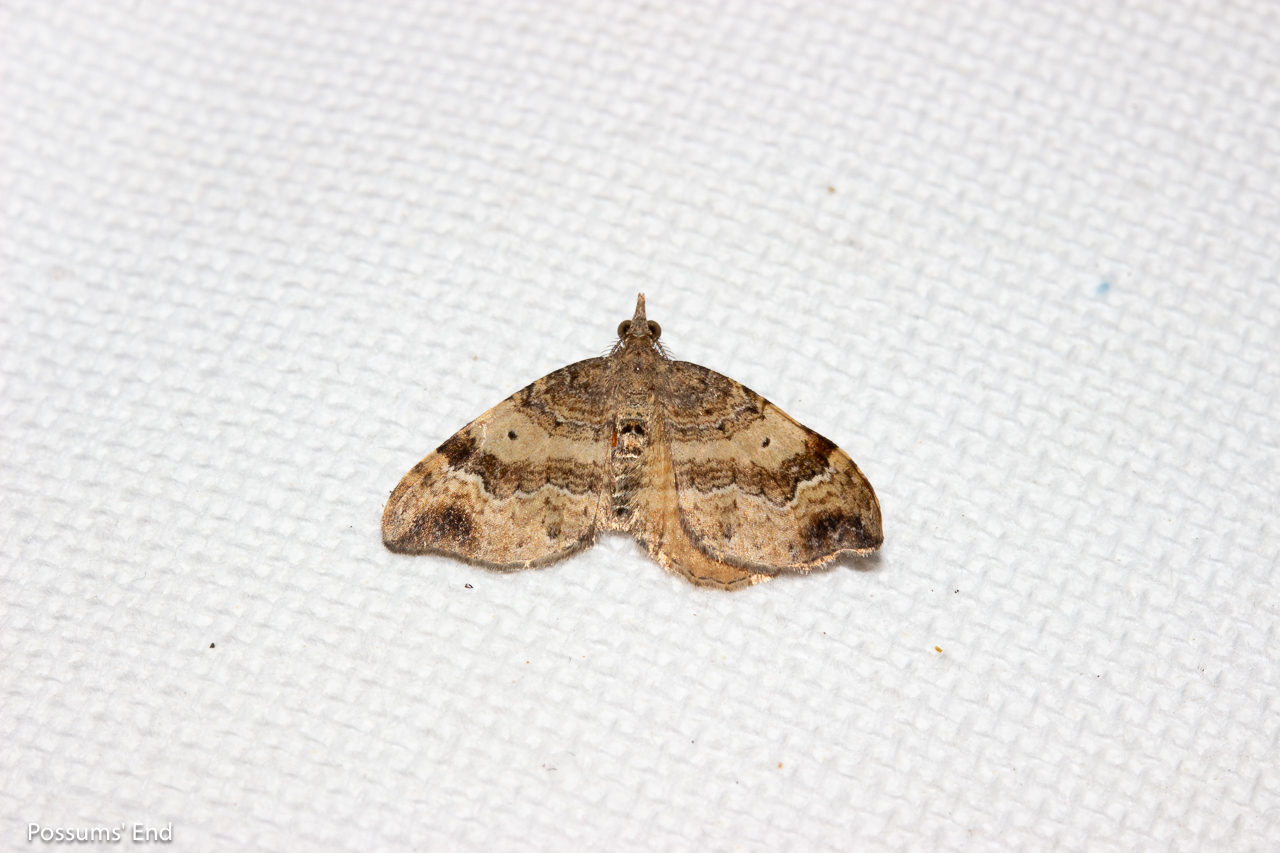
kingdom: Animalia
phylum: Arthropoda
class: Insecta
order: Lepidoptera
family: Geometridae
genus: Homodotis
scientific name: Homodotis megaspilata
